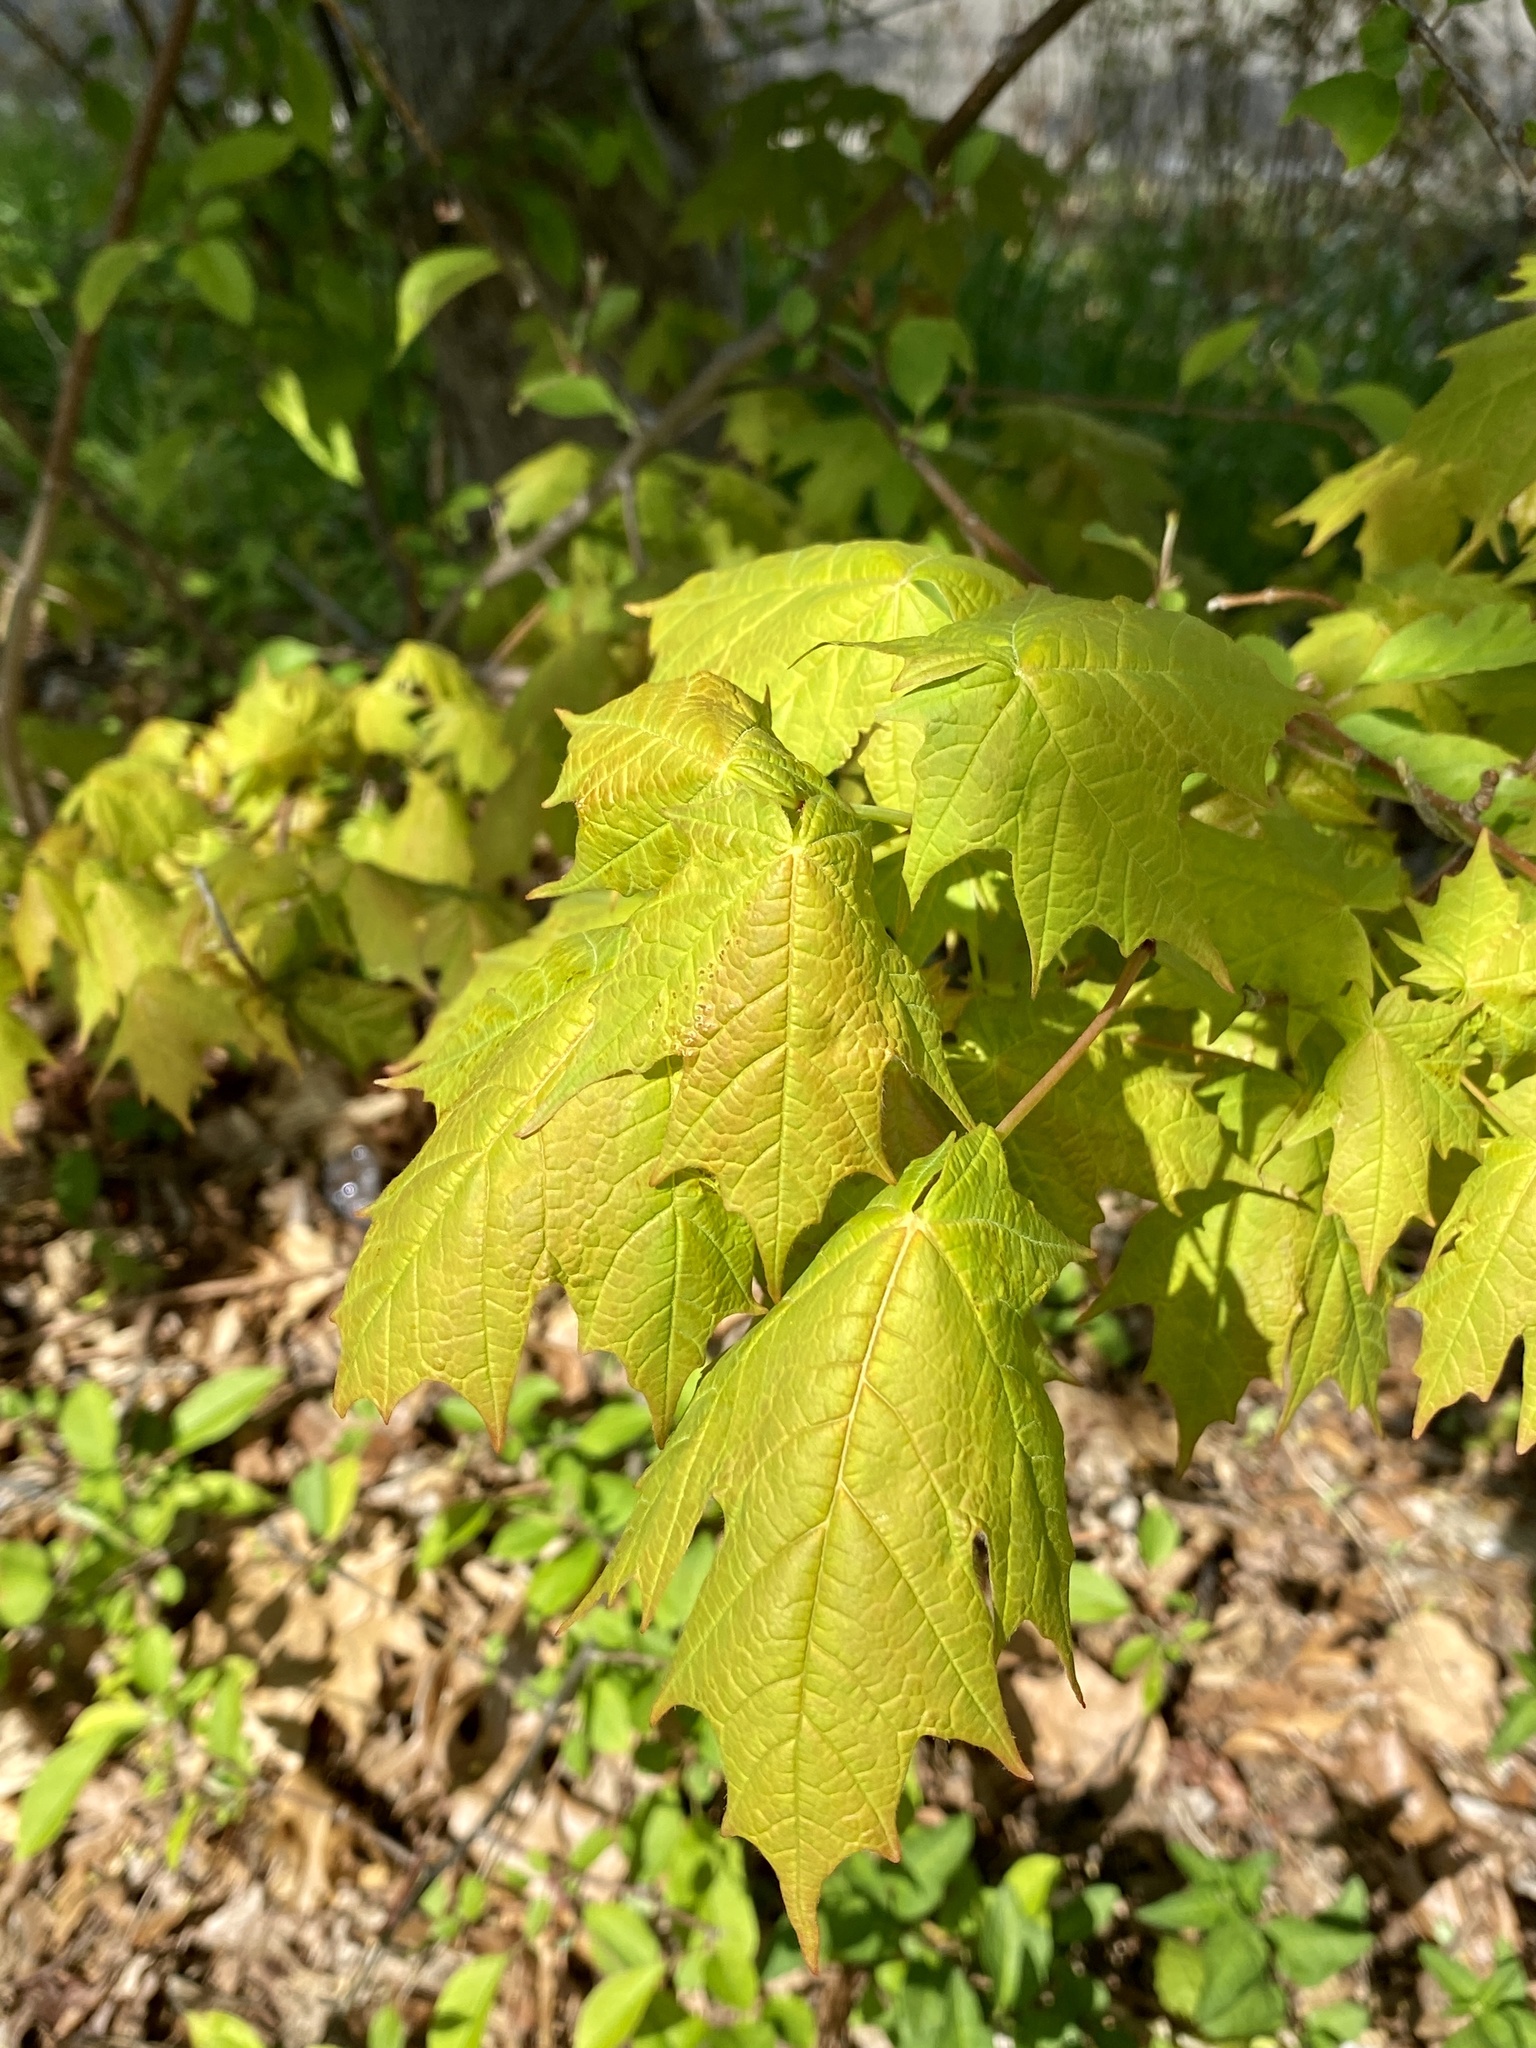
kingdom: Plantae
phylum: Tracheophyta
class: Magnoliopsida
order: Sapindales
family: Sapindaceae
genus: Acer
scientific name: Acer saccharum
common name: Sugar maple
